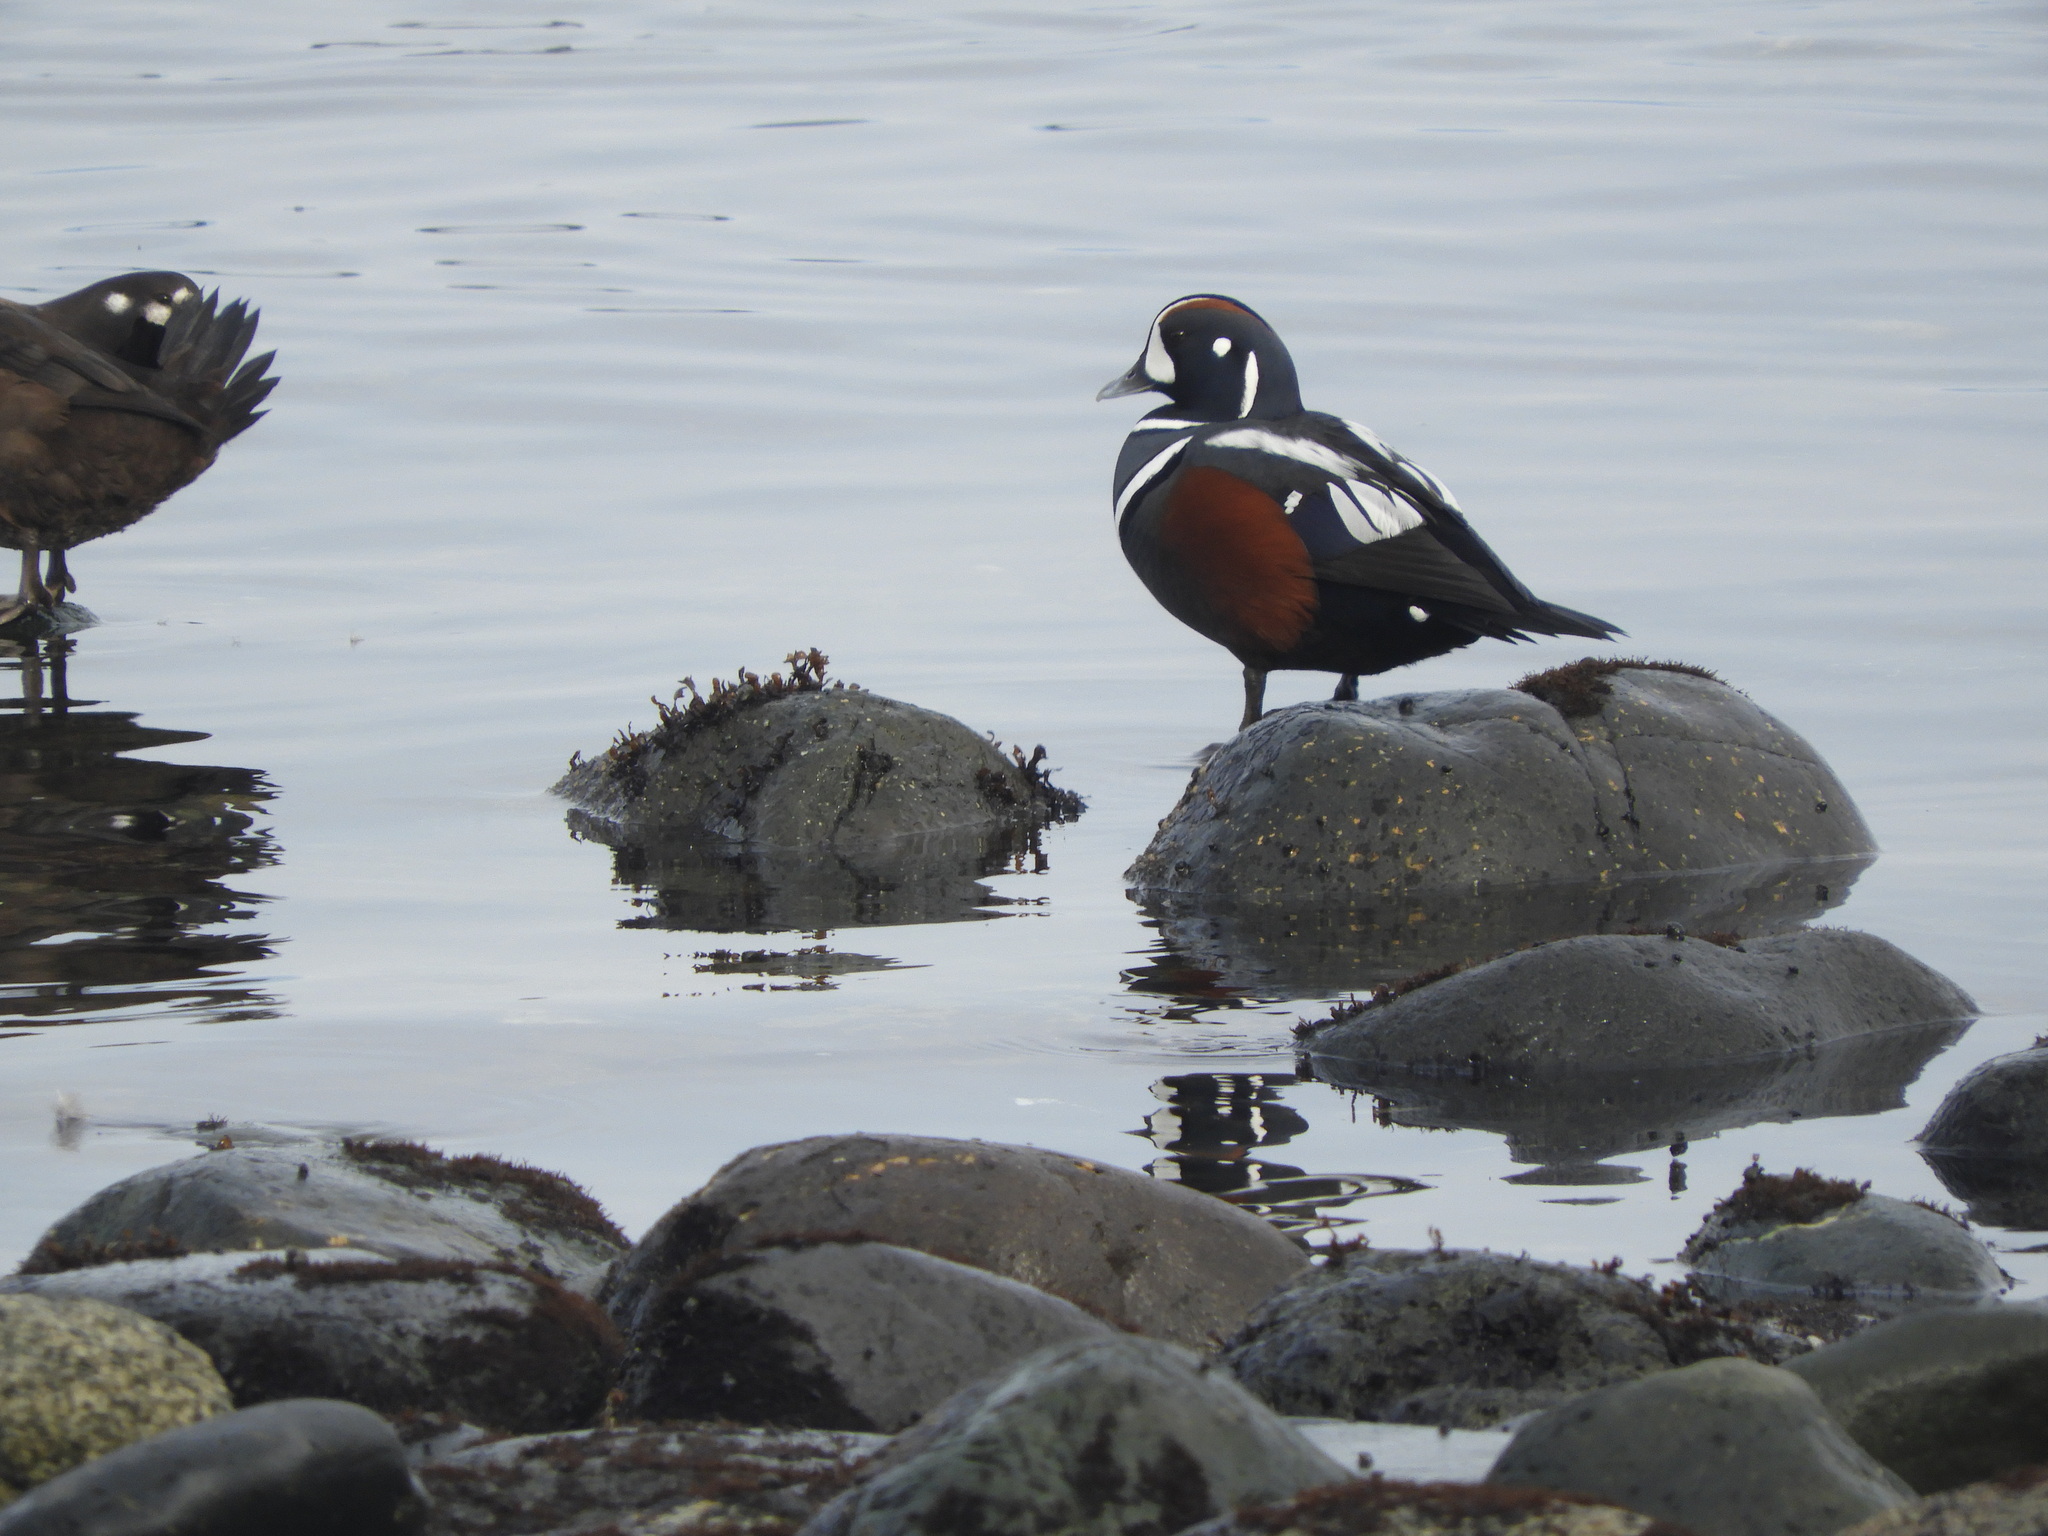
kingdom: Animalia
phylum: Chordata
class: Aves
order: Anseriformes
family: Anatidae
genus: Histrionicus
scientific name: Histrionicus histrionicus
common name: Harlequin duck
